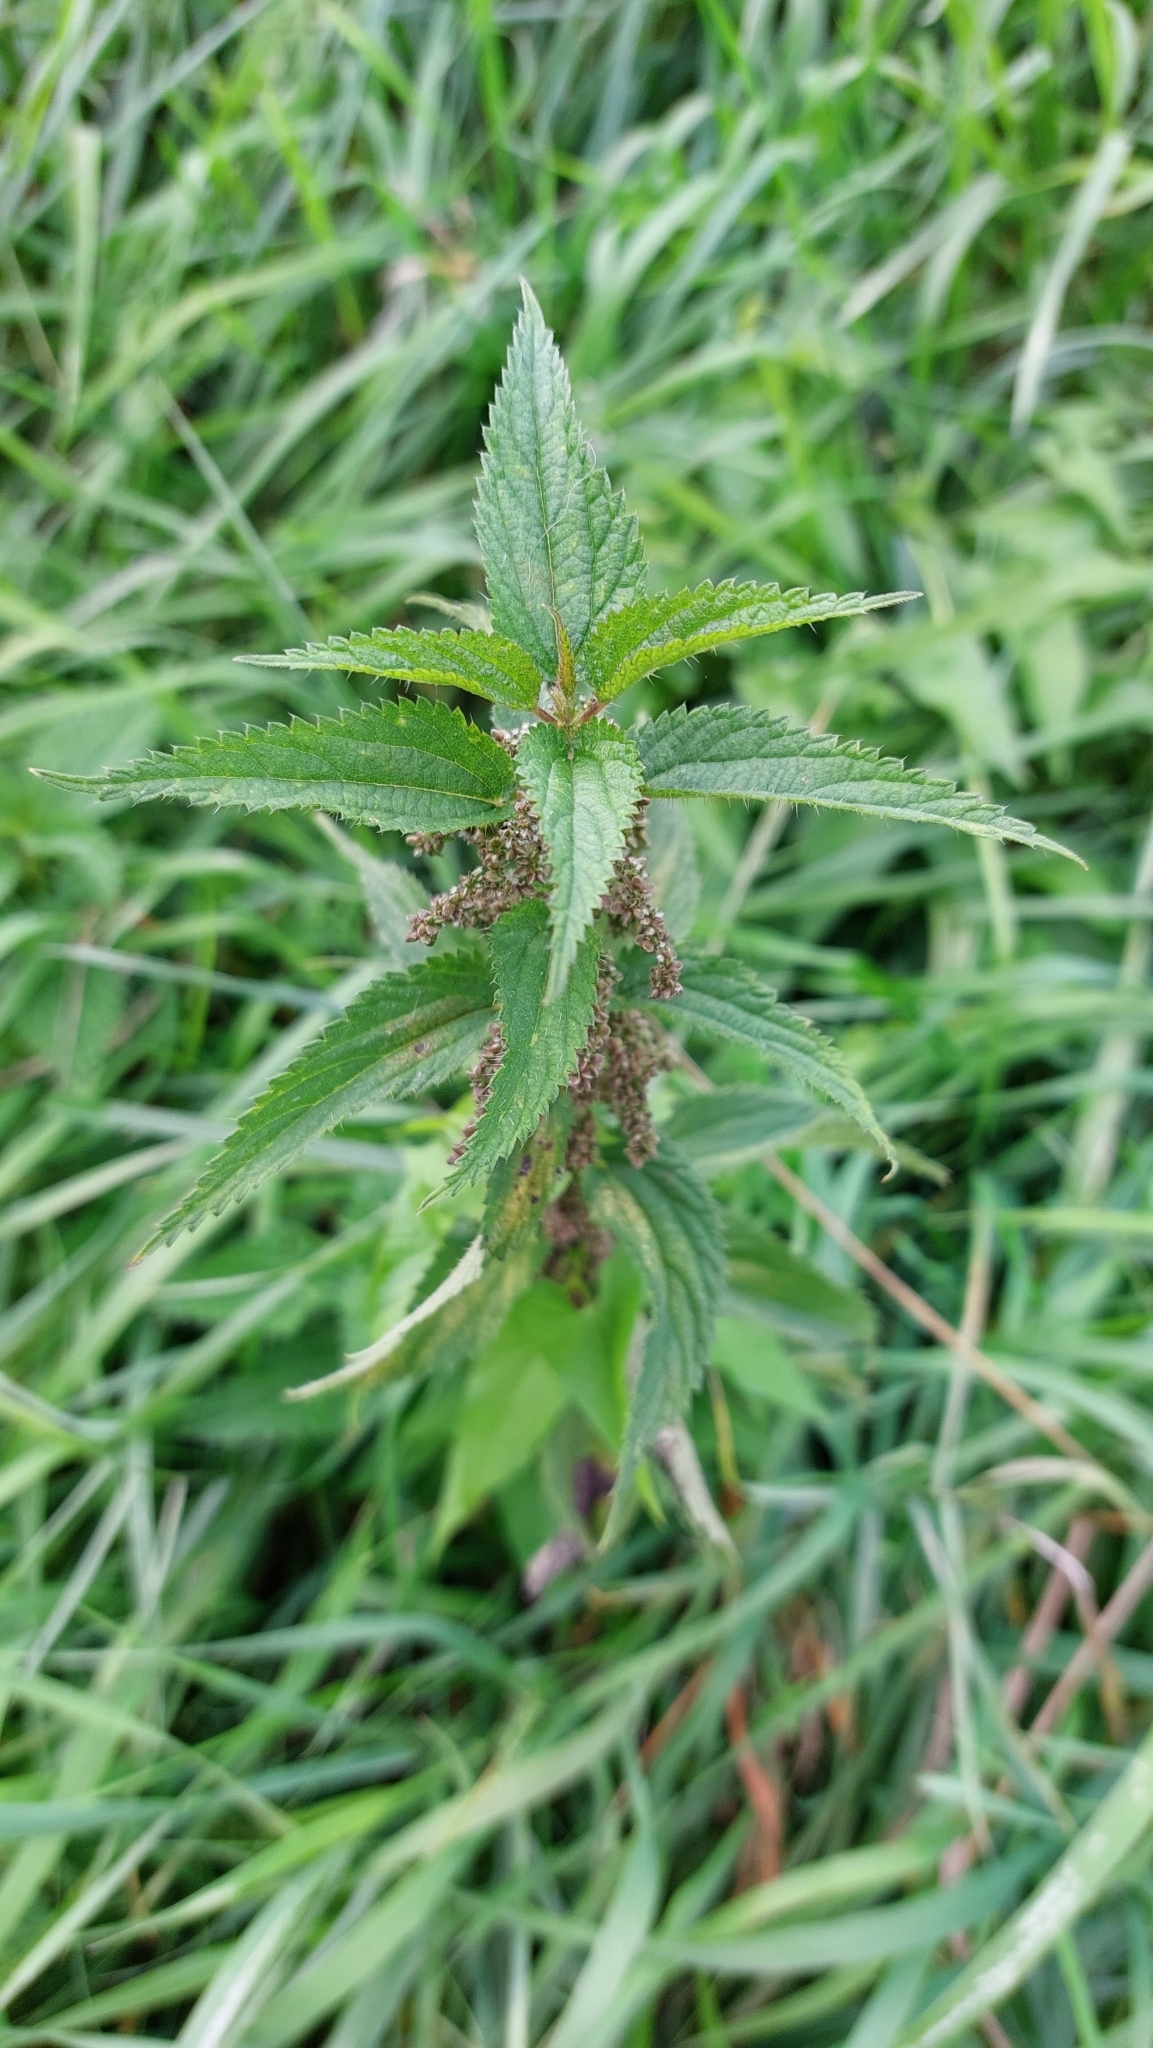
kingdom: Plantae
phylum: Tracheophyta
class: Magnoliopsida
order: Rosales
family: Urticaceae
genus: Urtica
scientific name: Urtica dioica
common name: Common nettle
